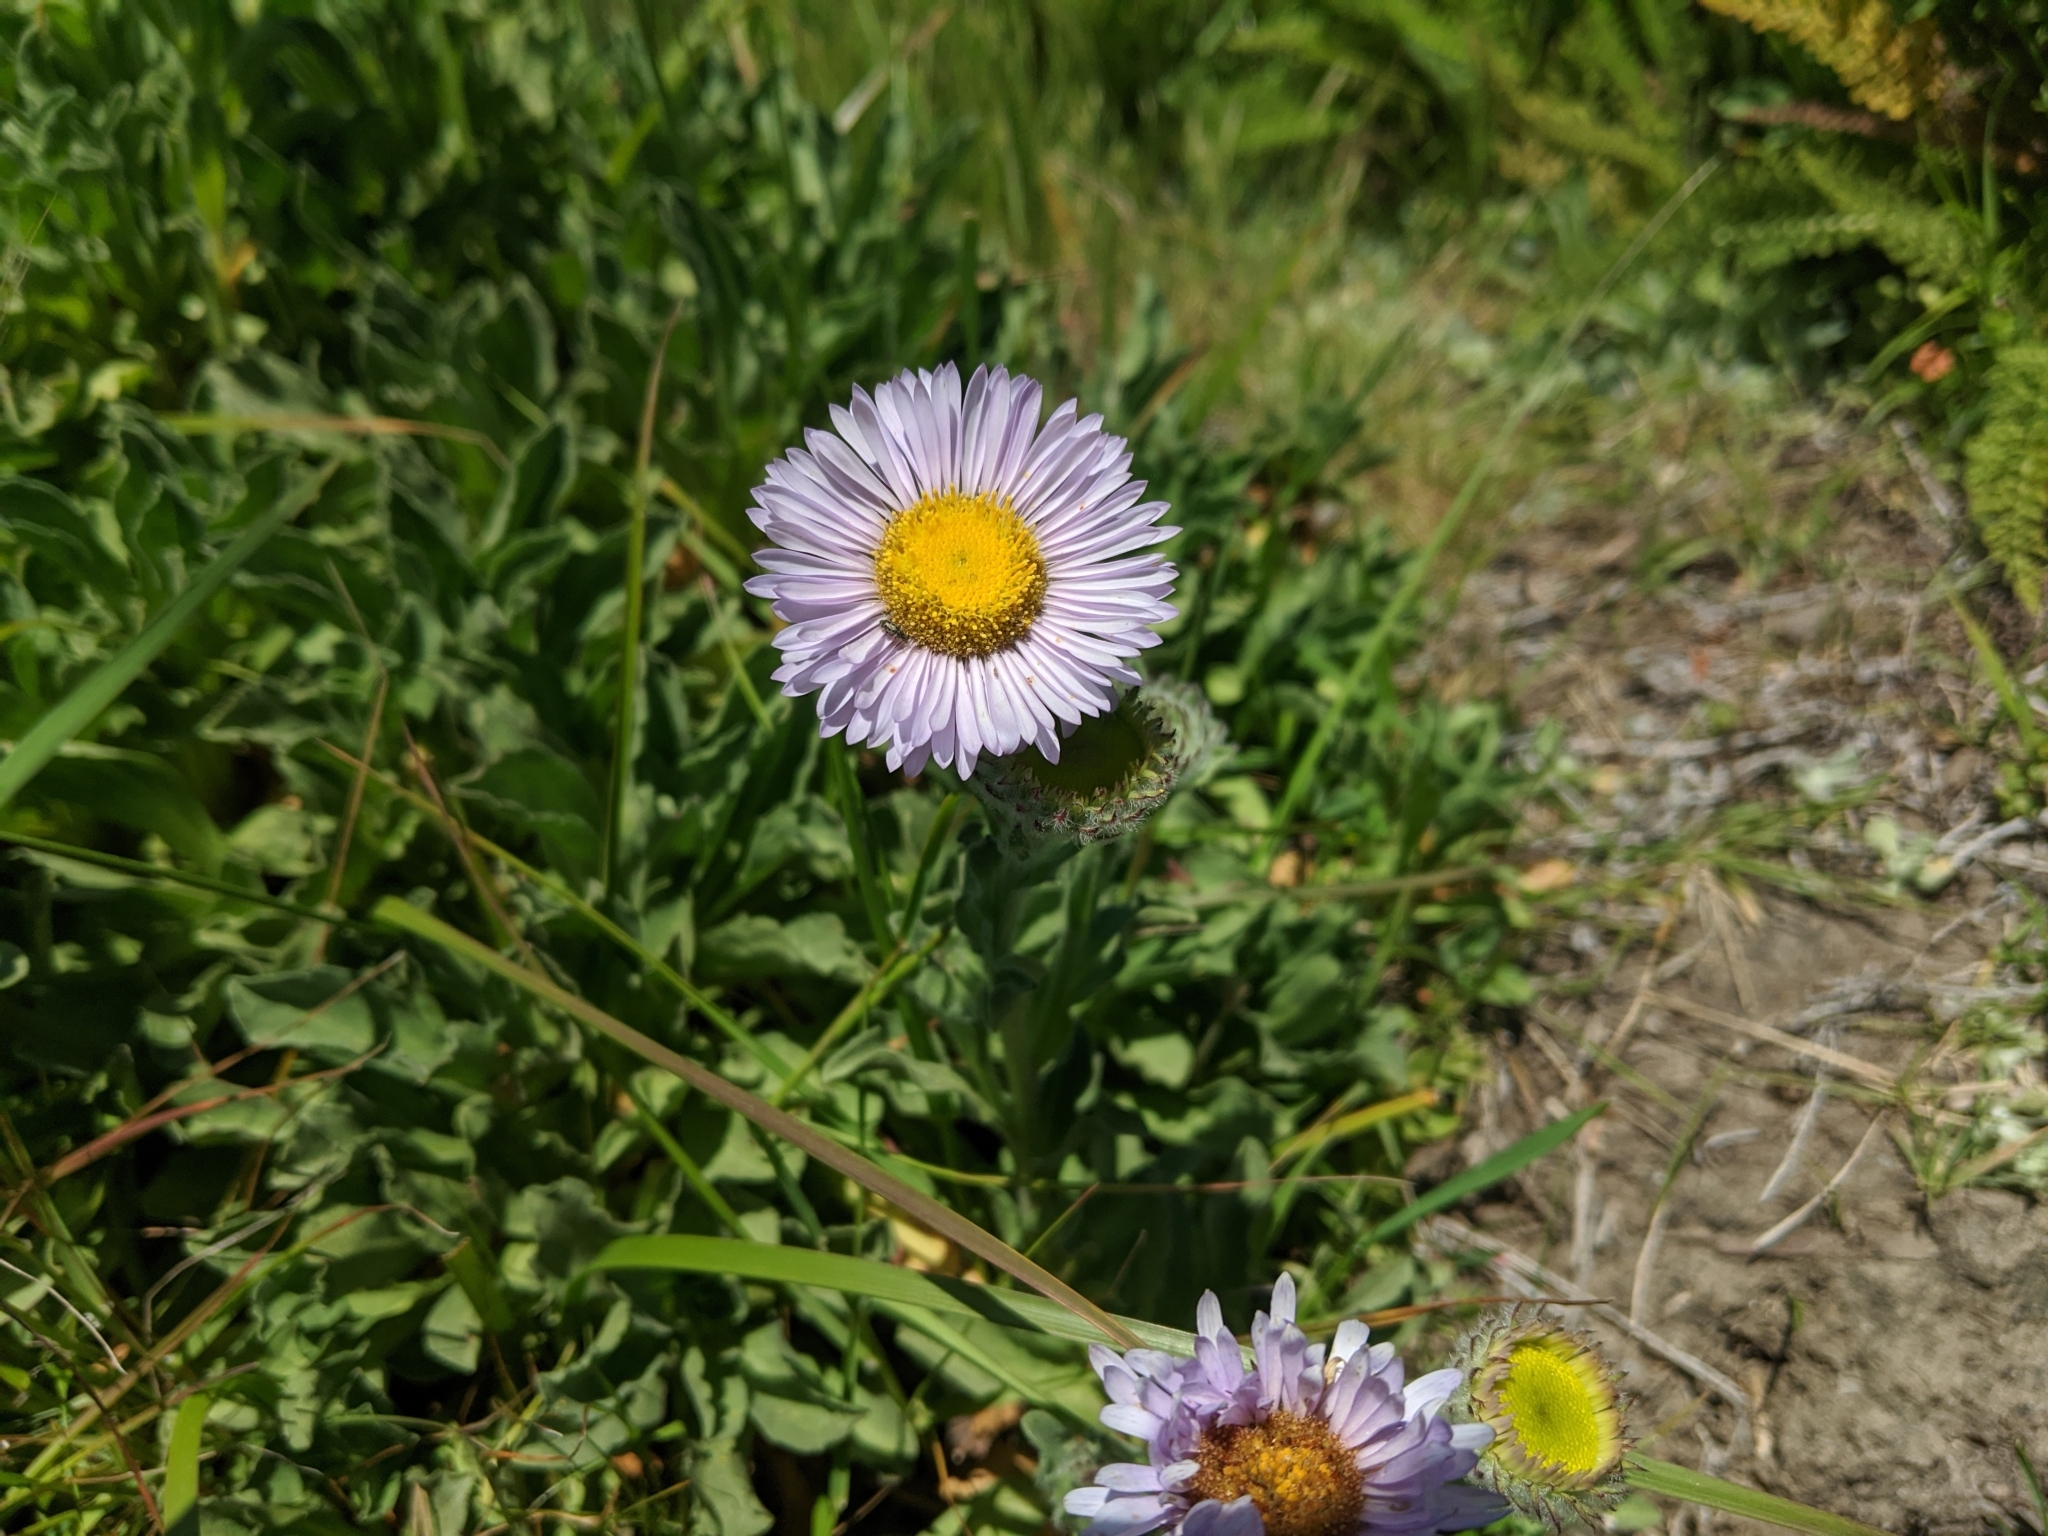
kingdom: Plantae
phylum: Tracheophyta
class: Magnoliopsida
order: Asterales
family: Asteraceae
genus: Erigeron
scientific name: Erigeron glaucus
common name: Seaside daisy
